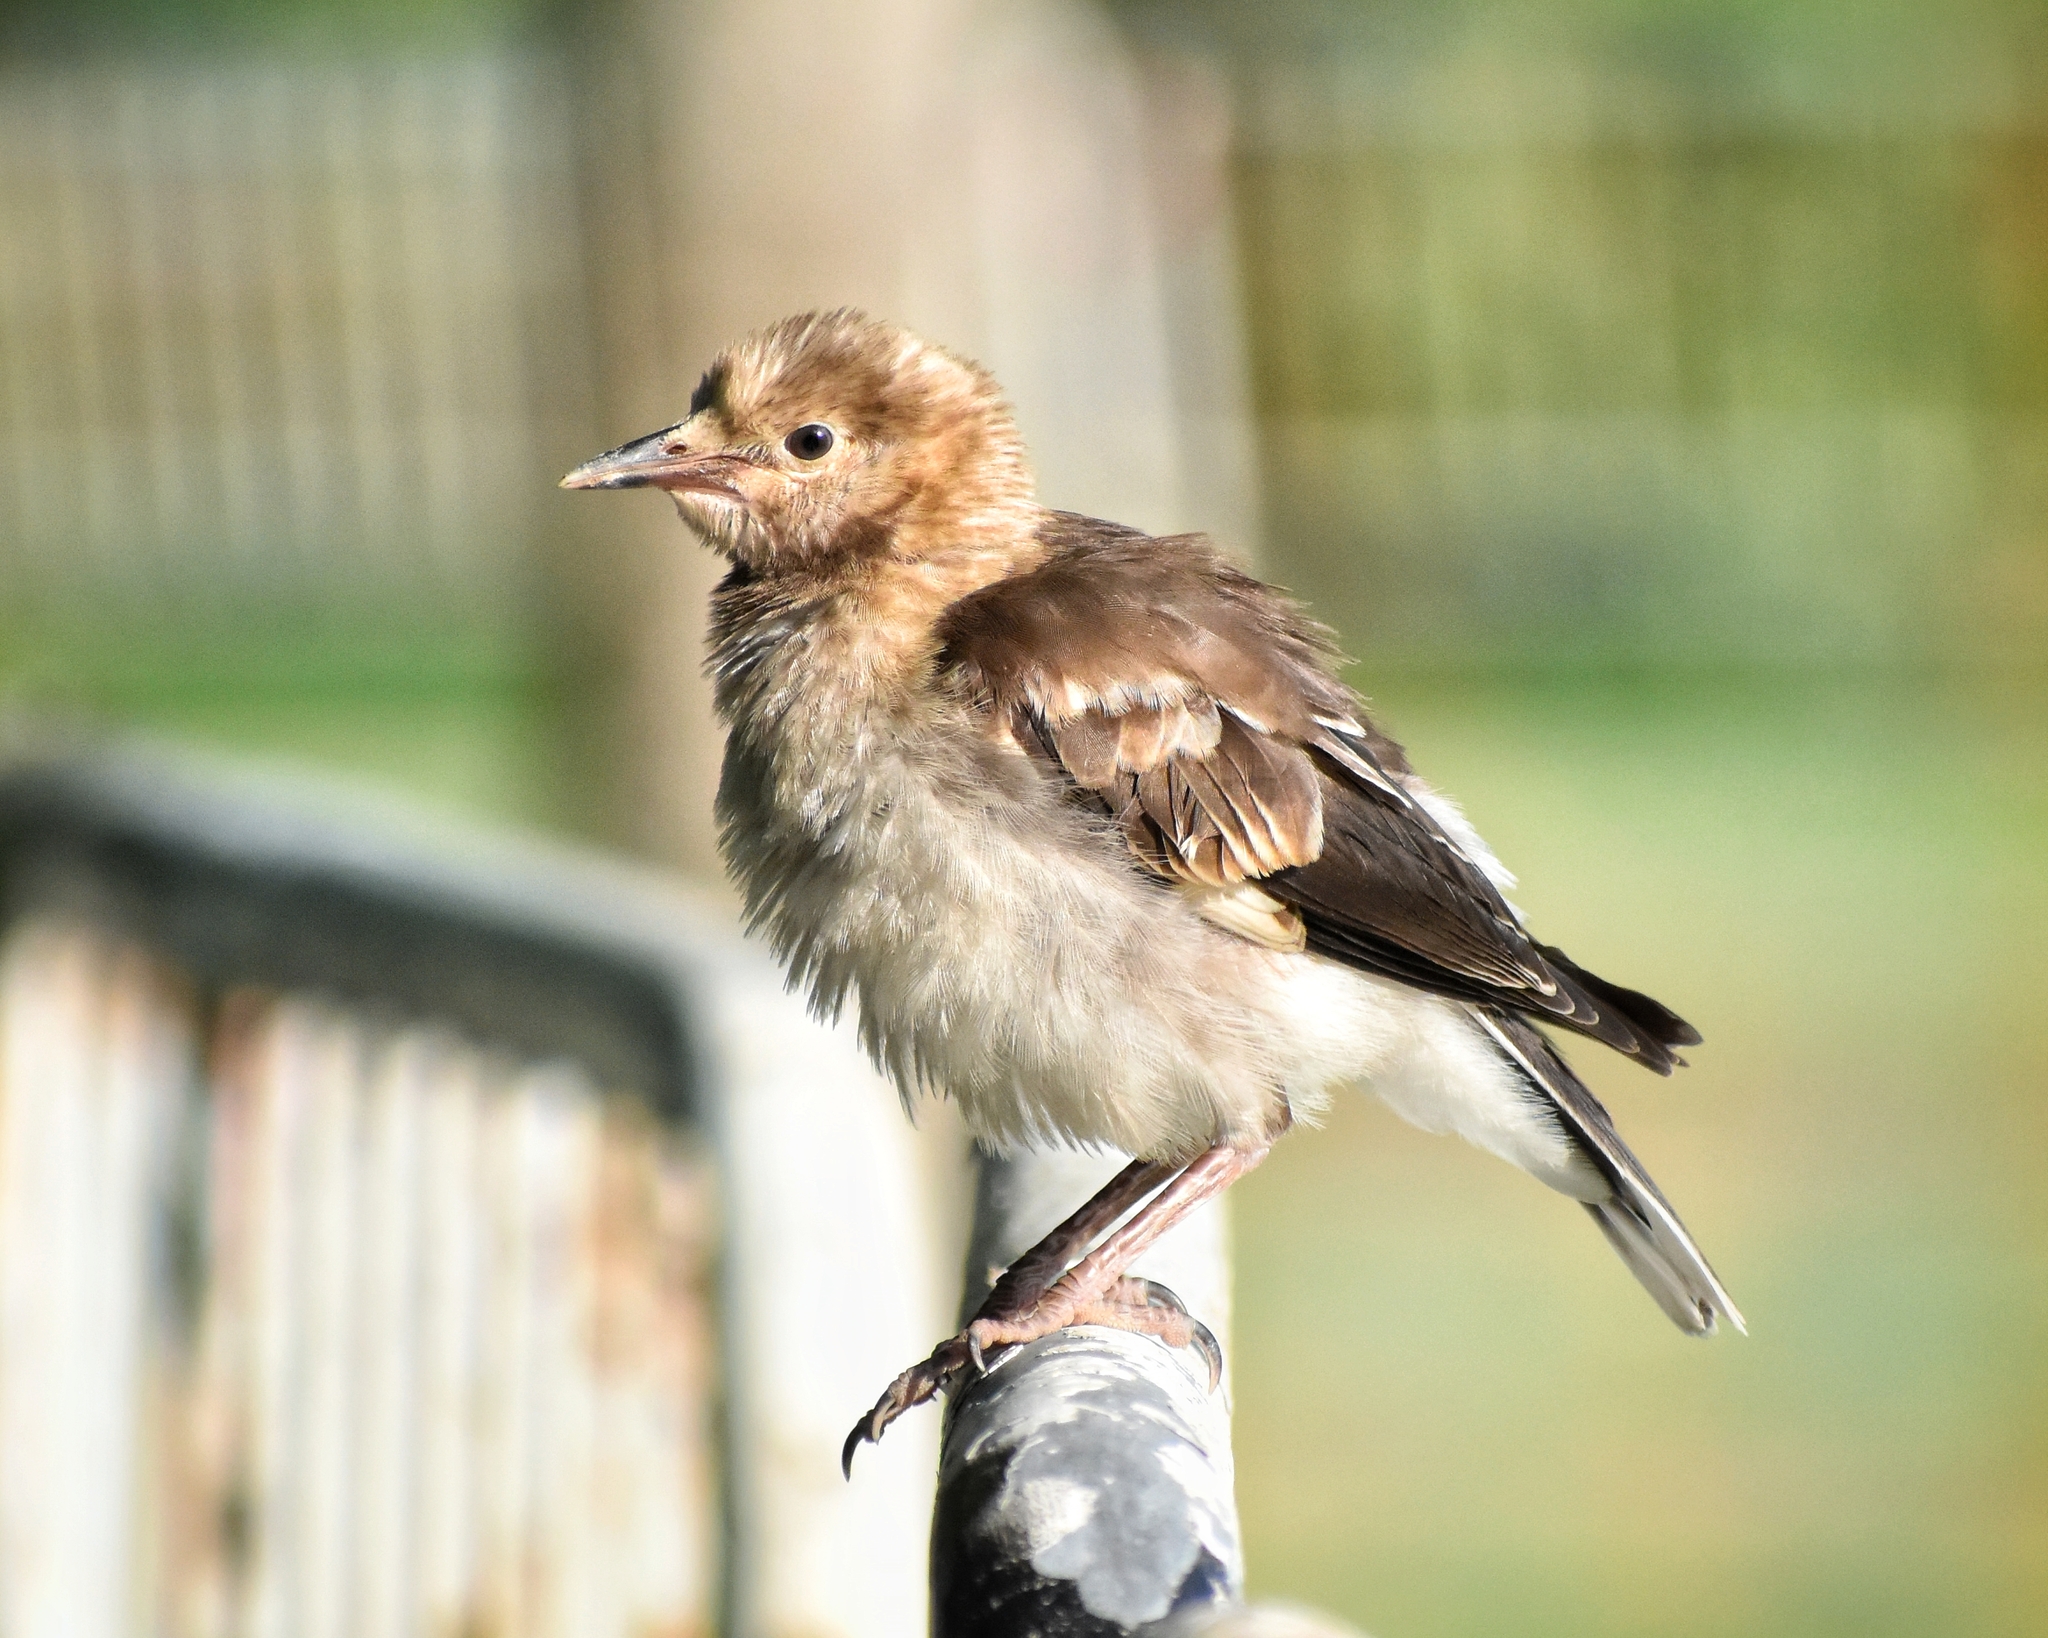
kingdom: Animalia
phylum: Chordata
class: Aves
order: Passeriformes
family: Sturnidae
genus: Gracupica
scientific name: Gracupica nigricollis
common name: Black-collared starling
